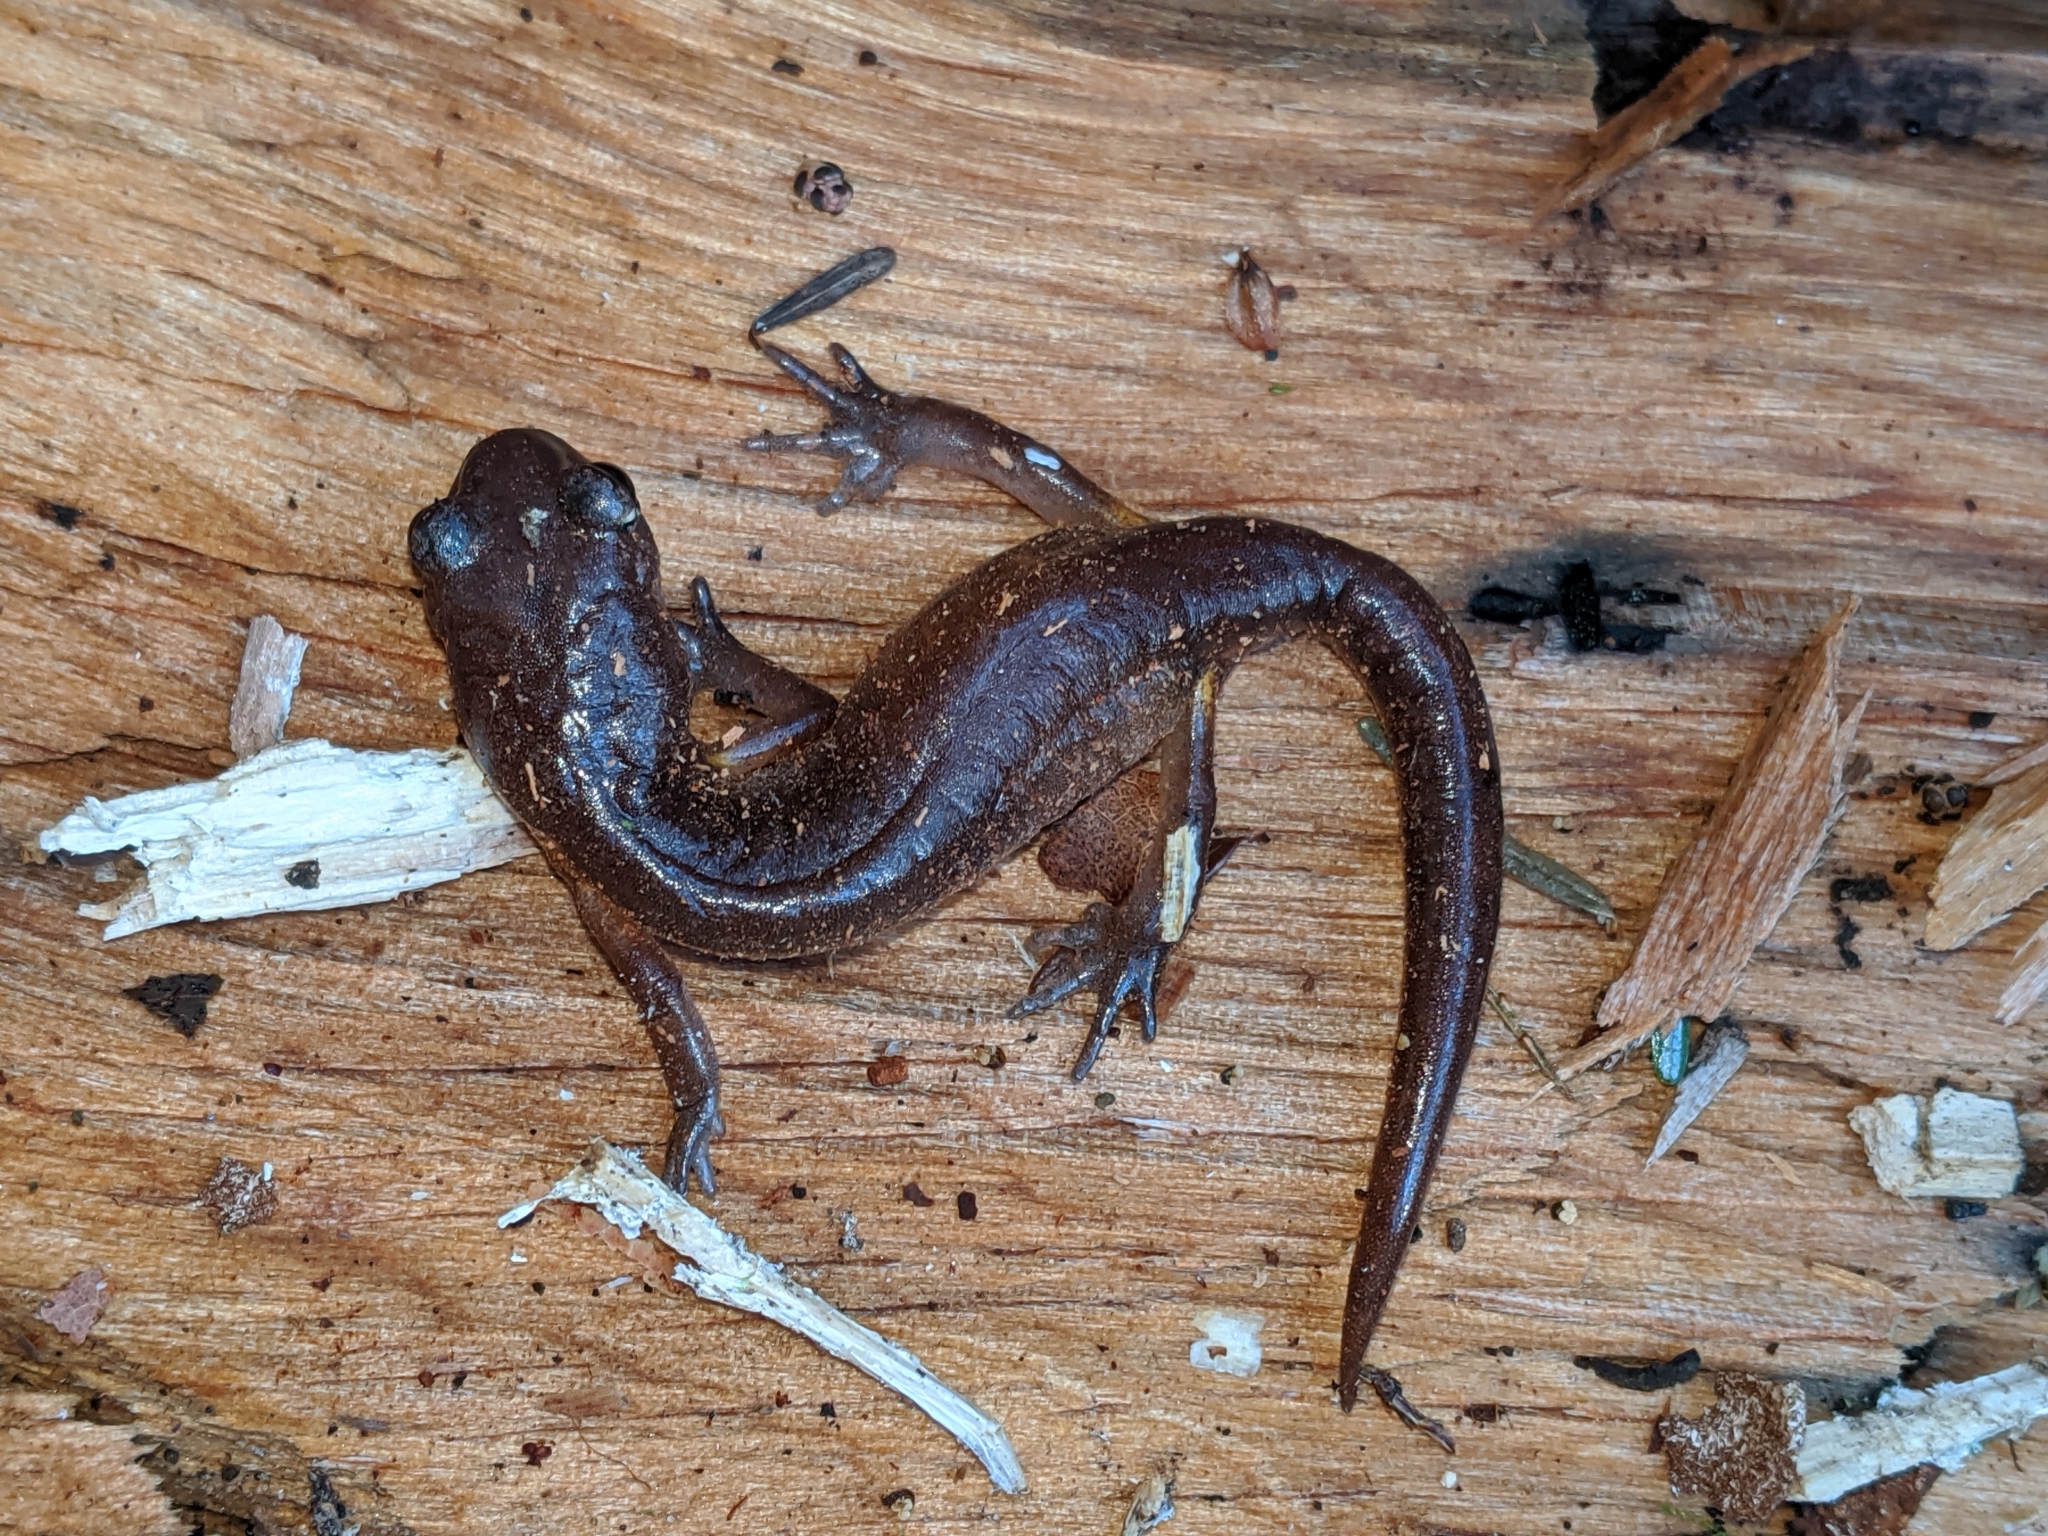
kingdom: Animalia
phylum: Chordata
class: Amphibia
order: Caudata
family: Plethodontidae
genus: Ensatina
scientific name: Ensatina eschscholtzii
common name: Ensatina
